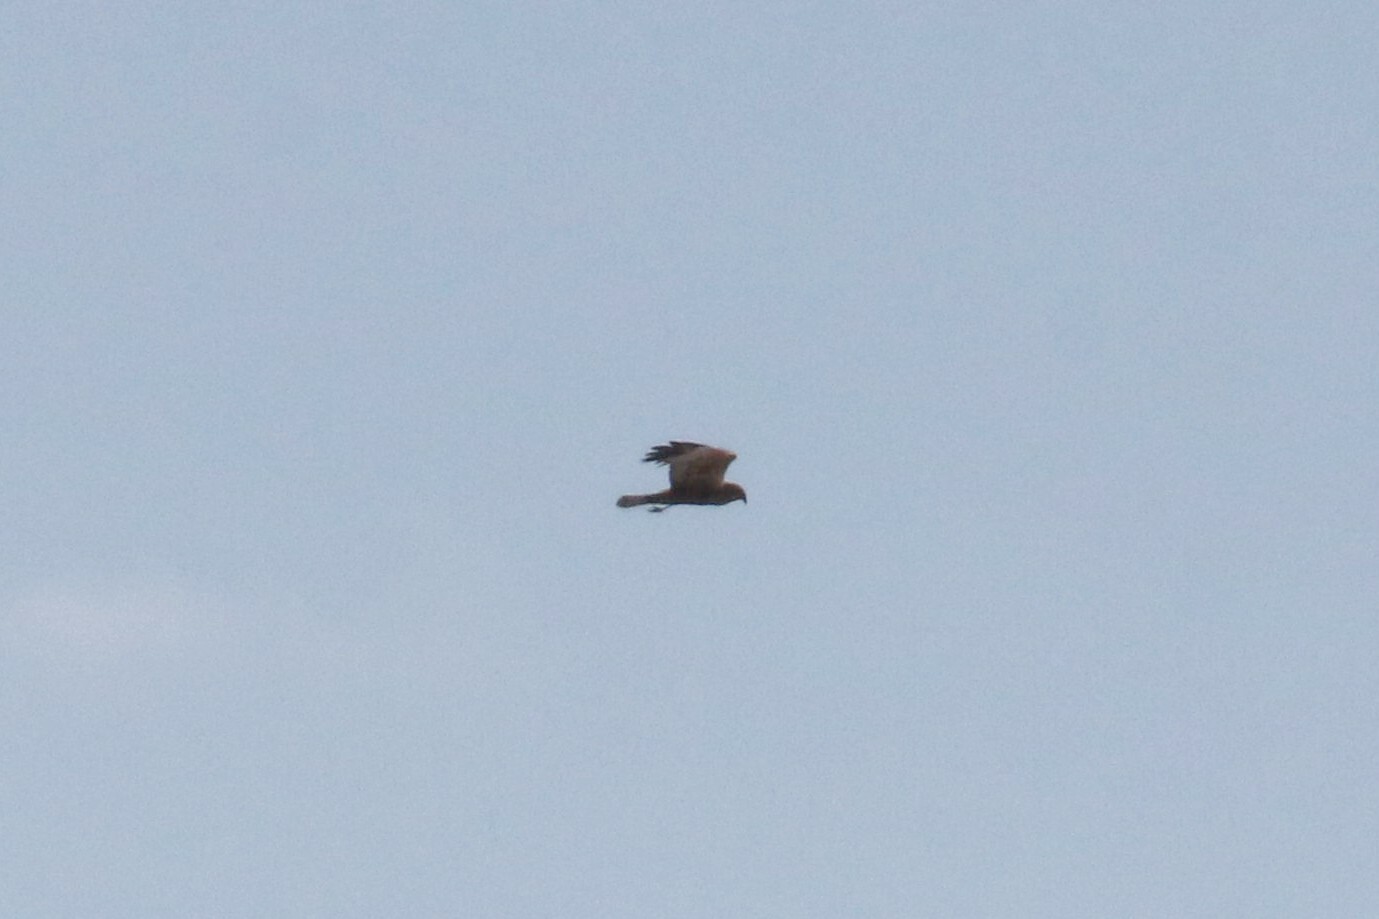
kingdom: Animalia
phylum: Chordata
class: Aves
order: Accipitriformes
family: Accipitridae
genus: Circus
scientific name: Circus aeruginosus
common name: Western marsh harrier
